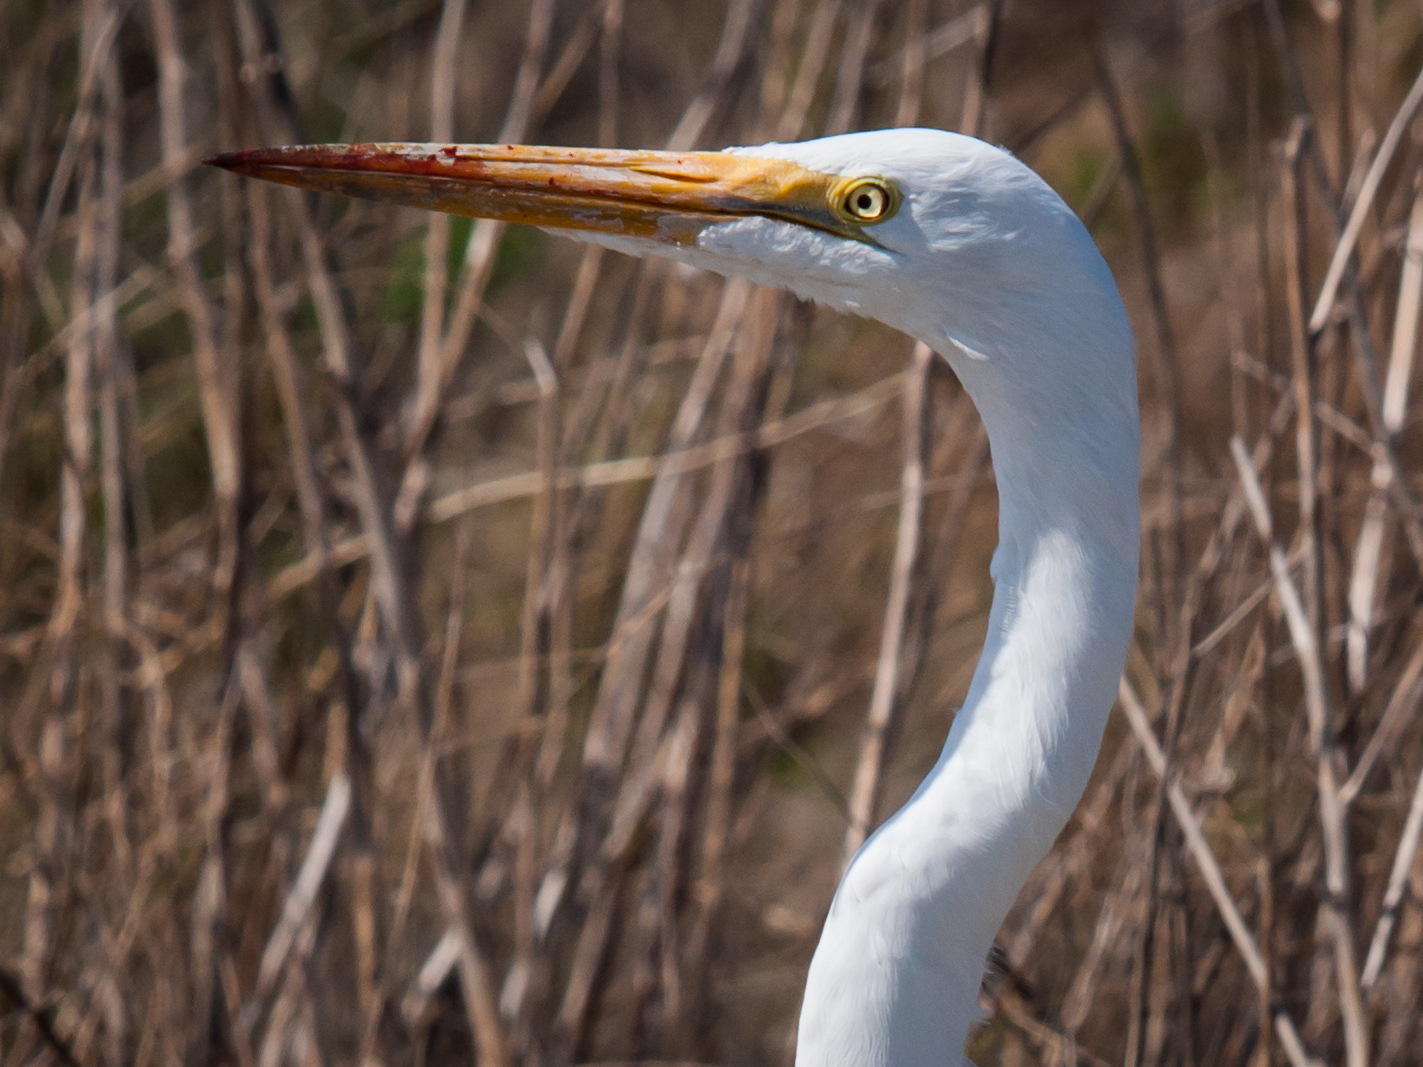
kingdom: Animalia
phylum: Chordata
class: Aves
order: Pelecaniformes
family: Ardeidae
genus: Ardea
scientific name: Ardea alba
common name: Great egret
